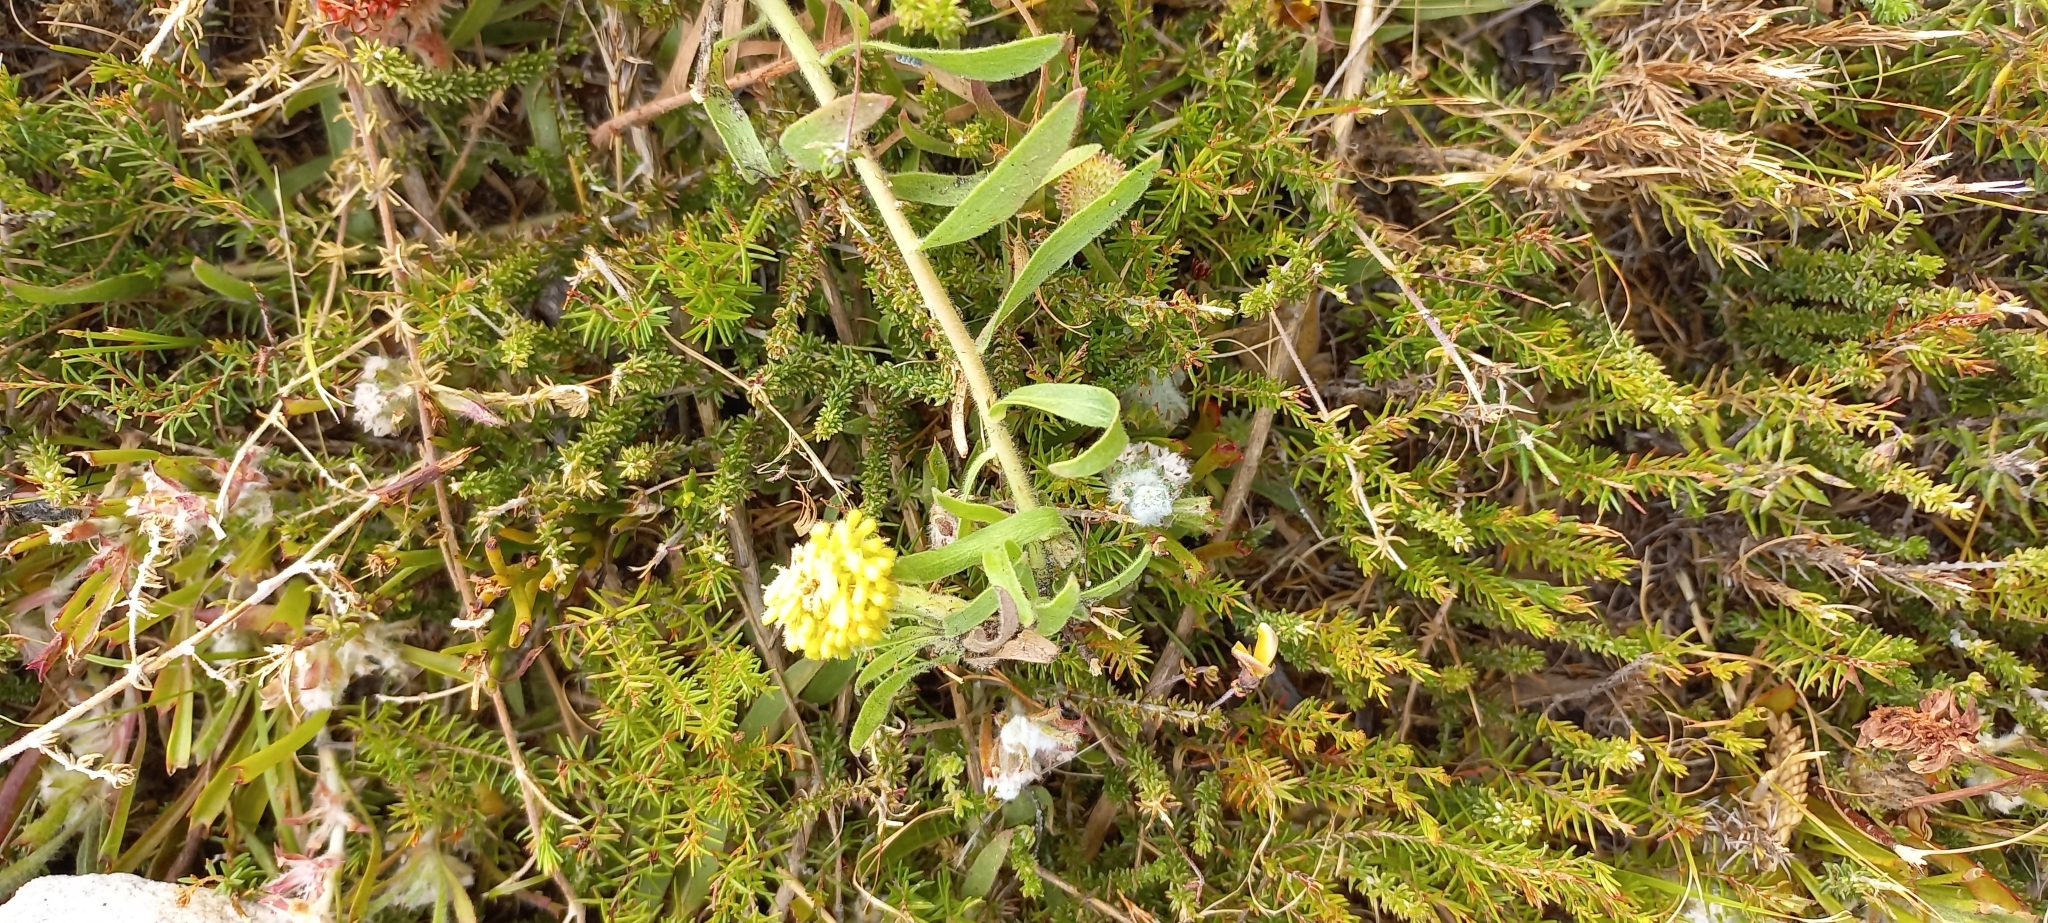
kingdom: Plantae
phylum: Tracheophyta
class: Magnoliopsida
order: Proteales
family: Proteaceae
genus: Leucospermum
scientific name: Leucospermum prostratum
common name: Yellow-trailing pincushion
